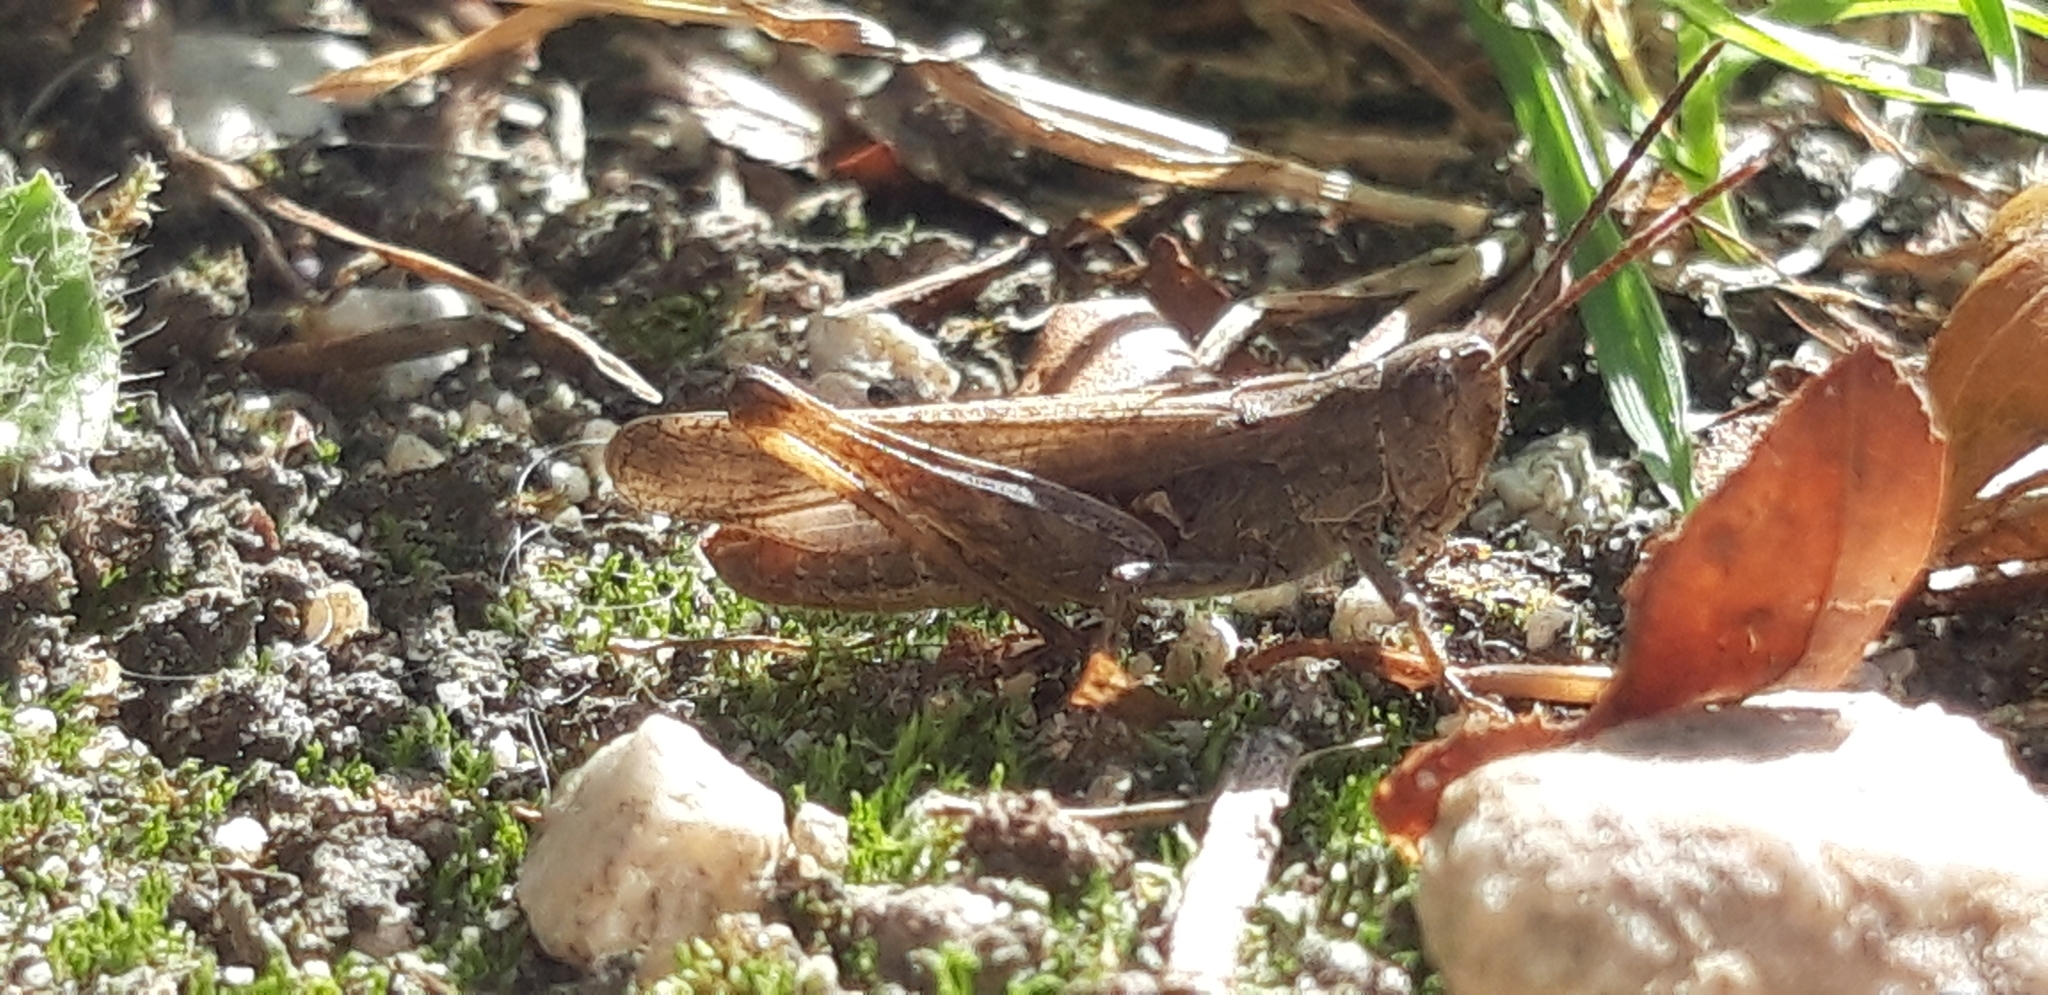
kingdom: Animalia
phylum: Arthropoda
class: Insecta
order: Orthoptera
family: Acrididae
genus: Chorthippus
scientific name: Chorthippus biguttulus
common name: Bow-winged grasshopper
